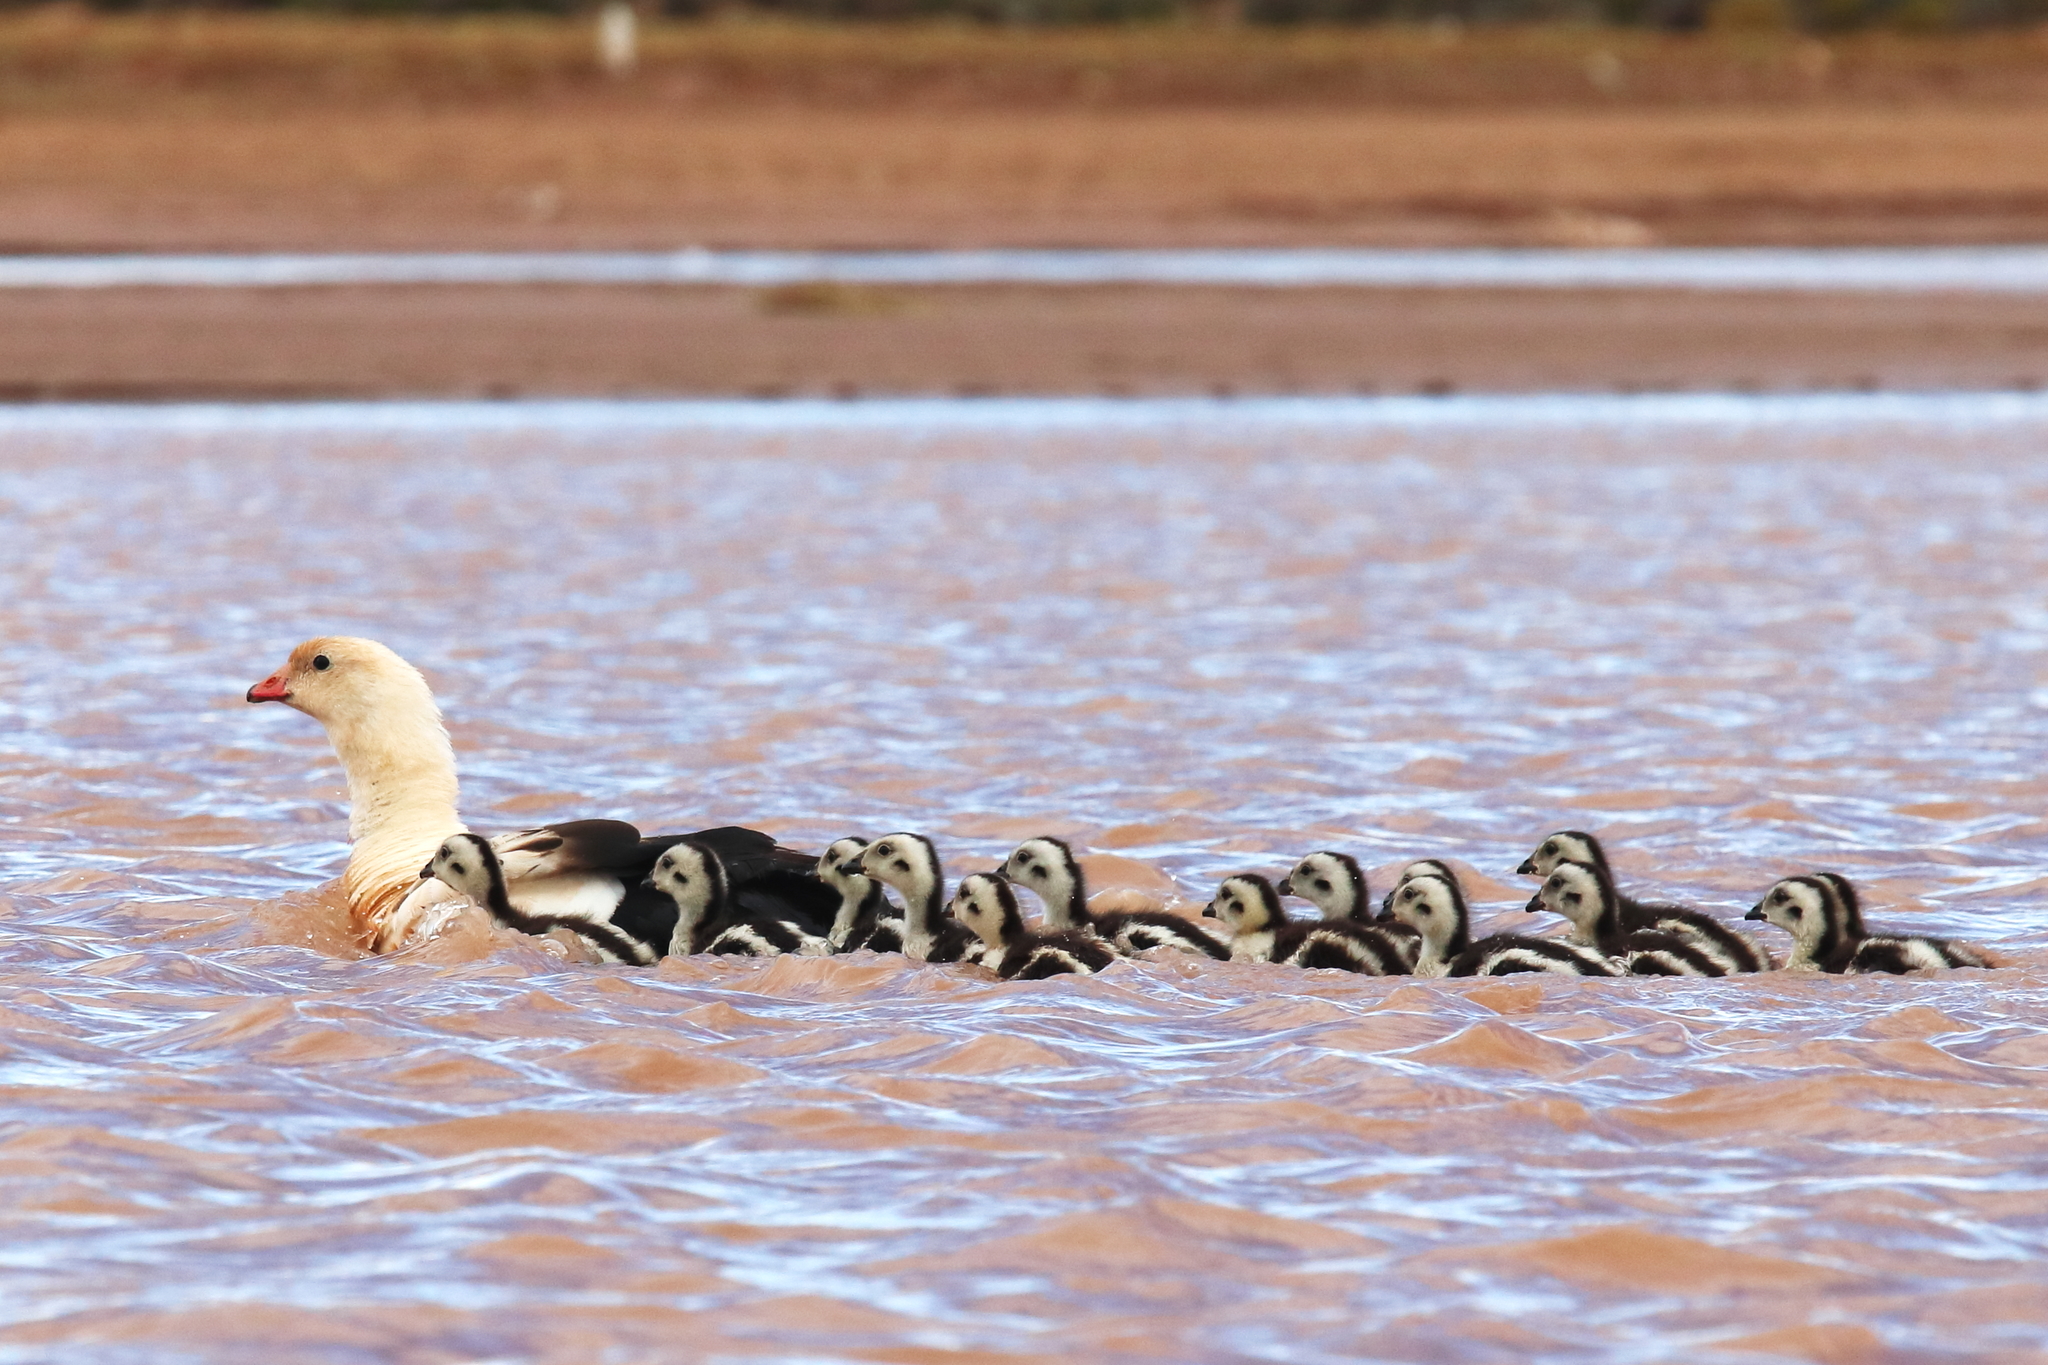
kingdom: Animalia
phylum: Chordata
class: Aves
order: Anseriformes
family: Anatidae
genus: Chloephaga
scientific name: Chloephaga melanoptera
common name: Andean goose
